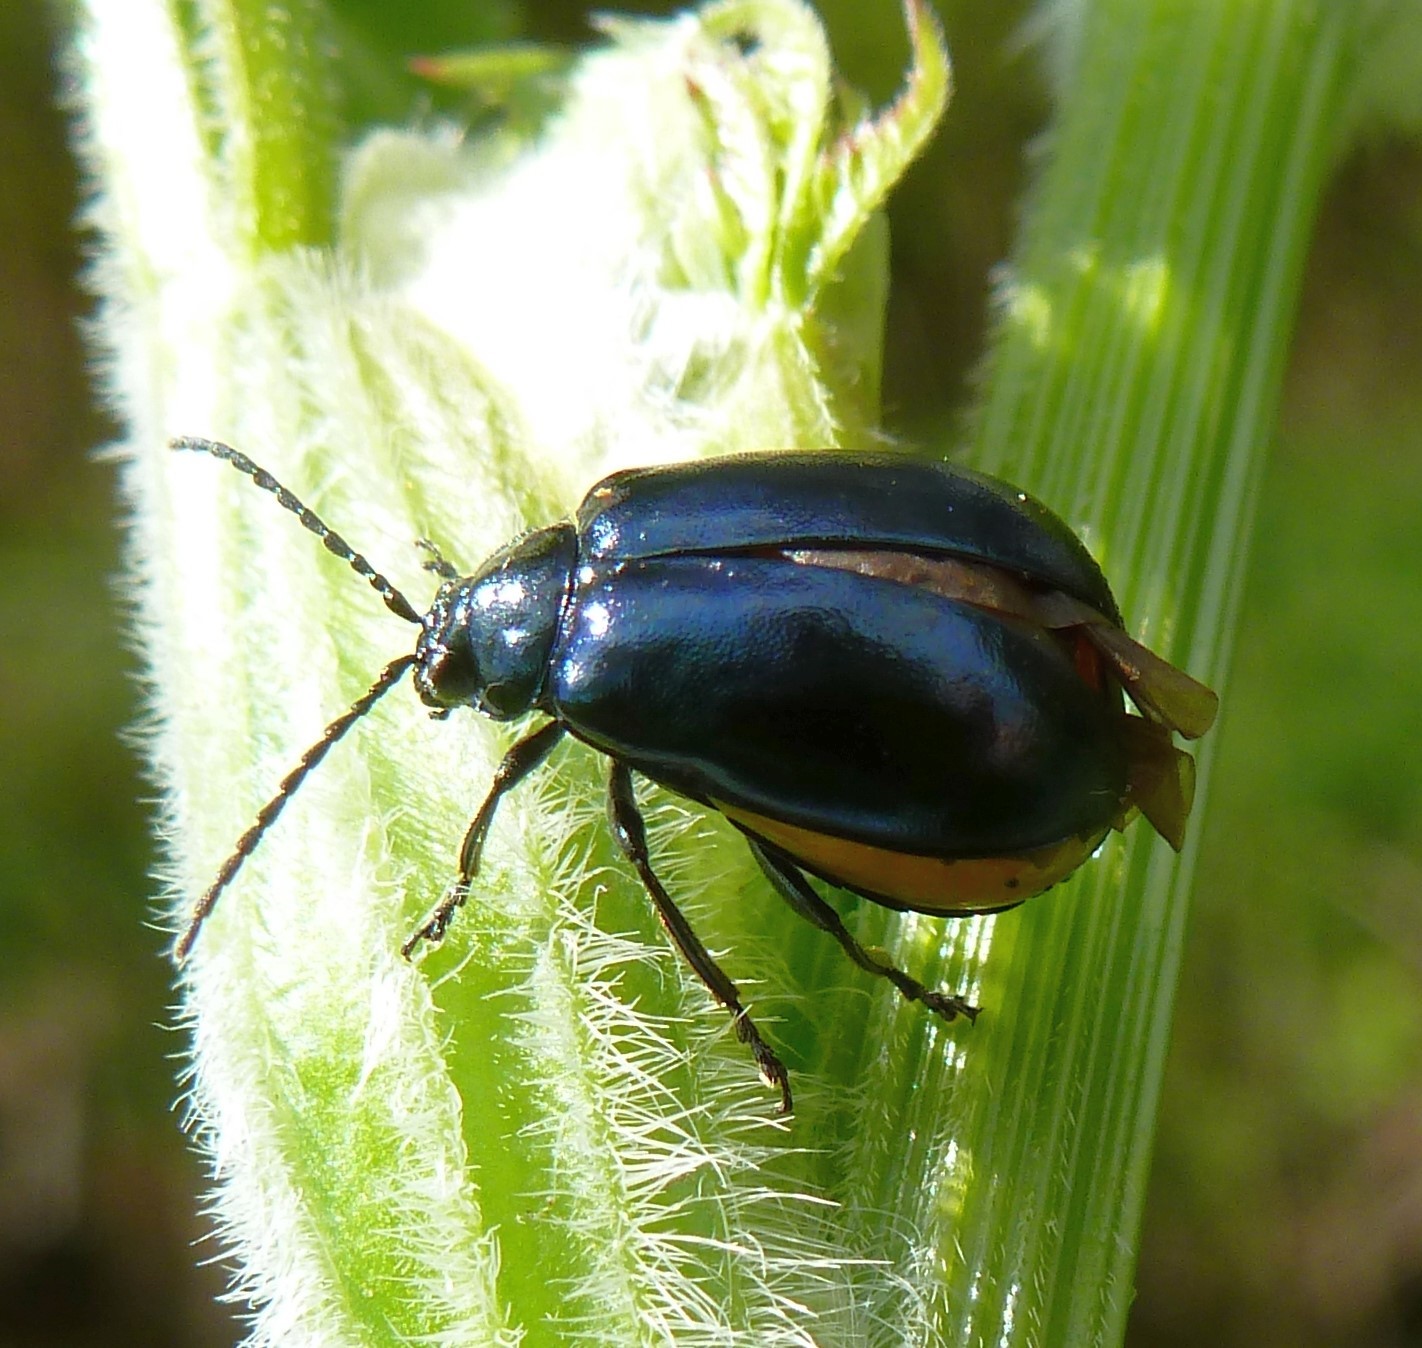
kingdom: Animalia
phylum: Arthropoda
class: Insecta
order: Coleoptera
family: Chrysomelidae
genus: Agelastica
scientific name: Agelastica alni
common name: Alder leaf beetle
